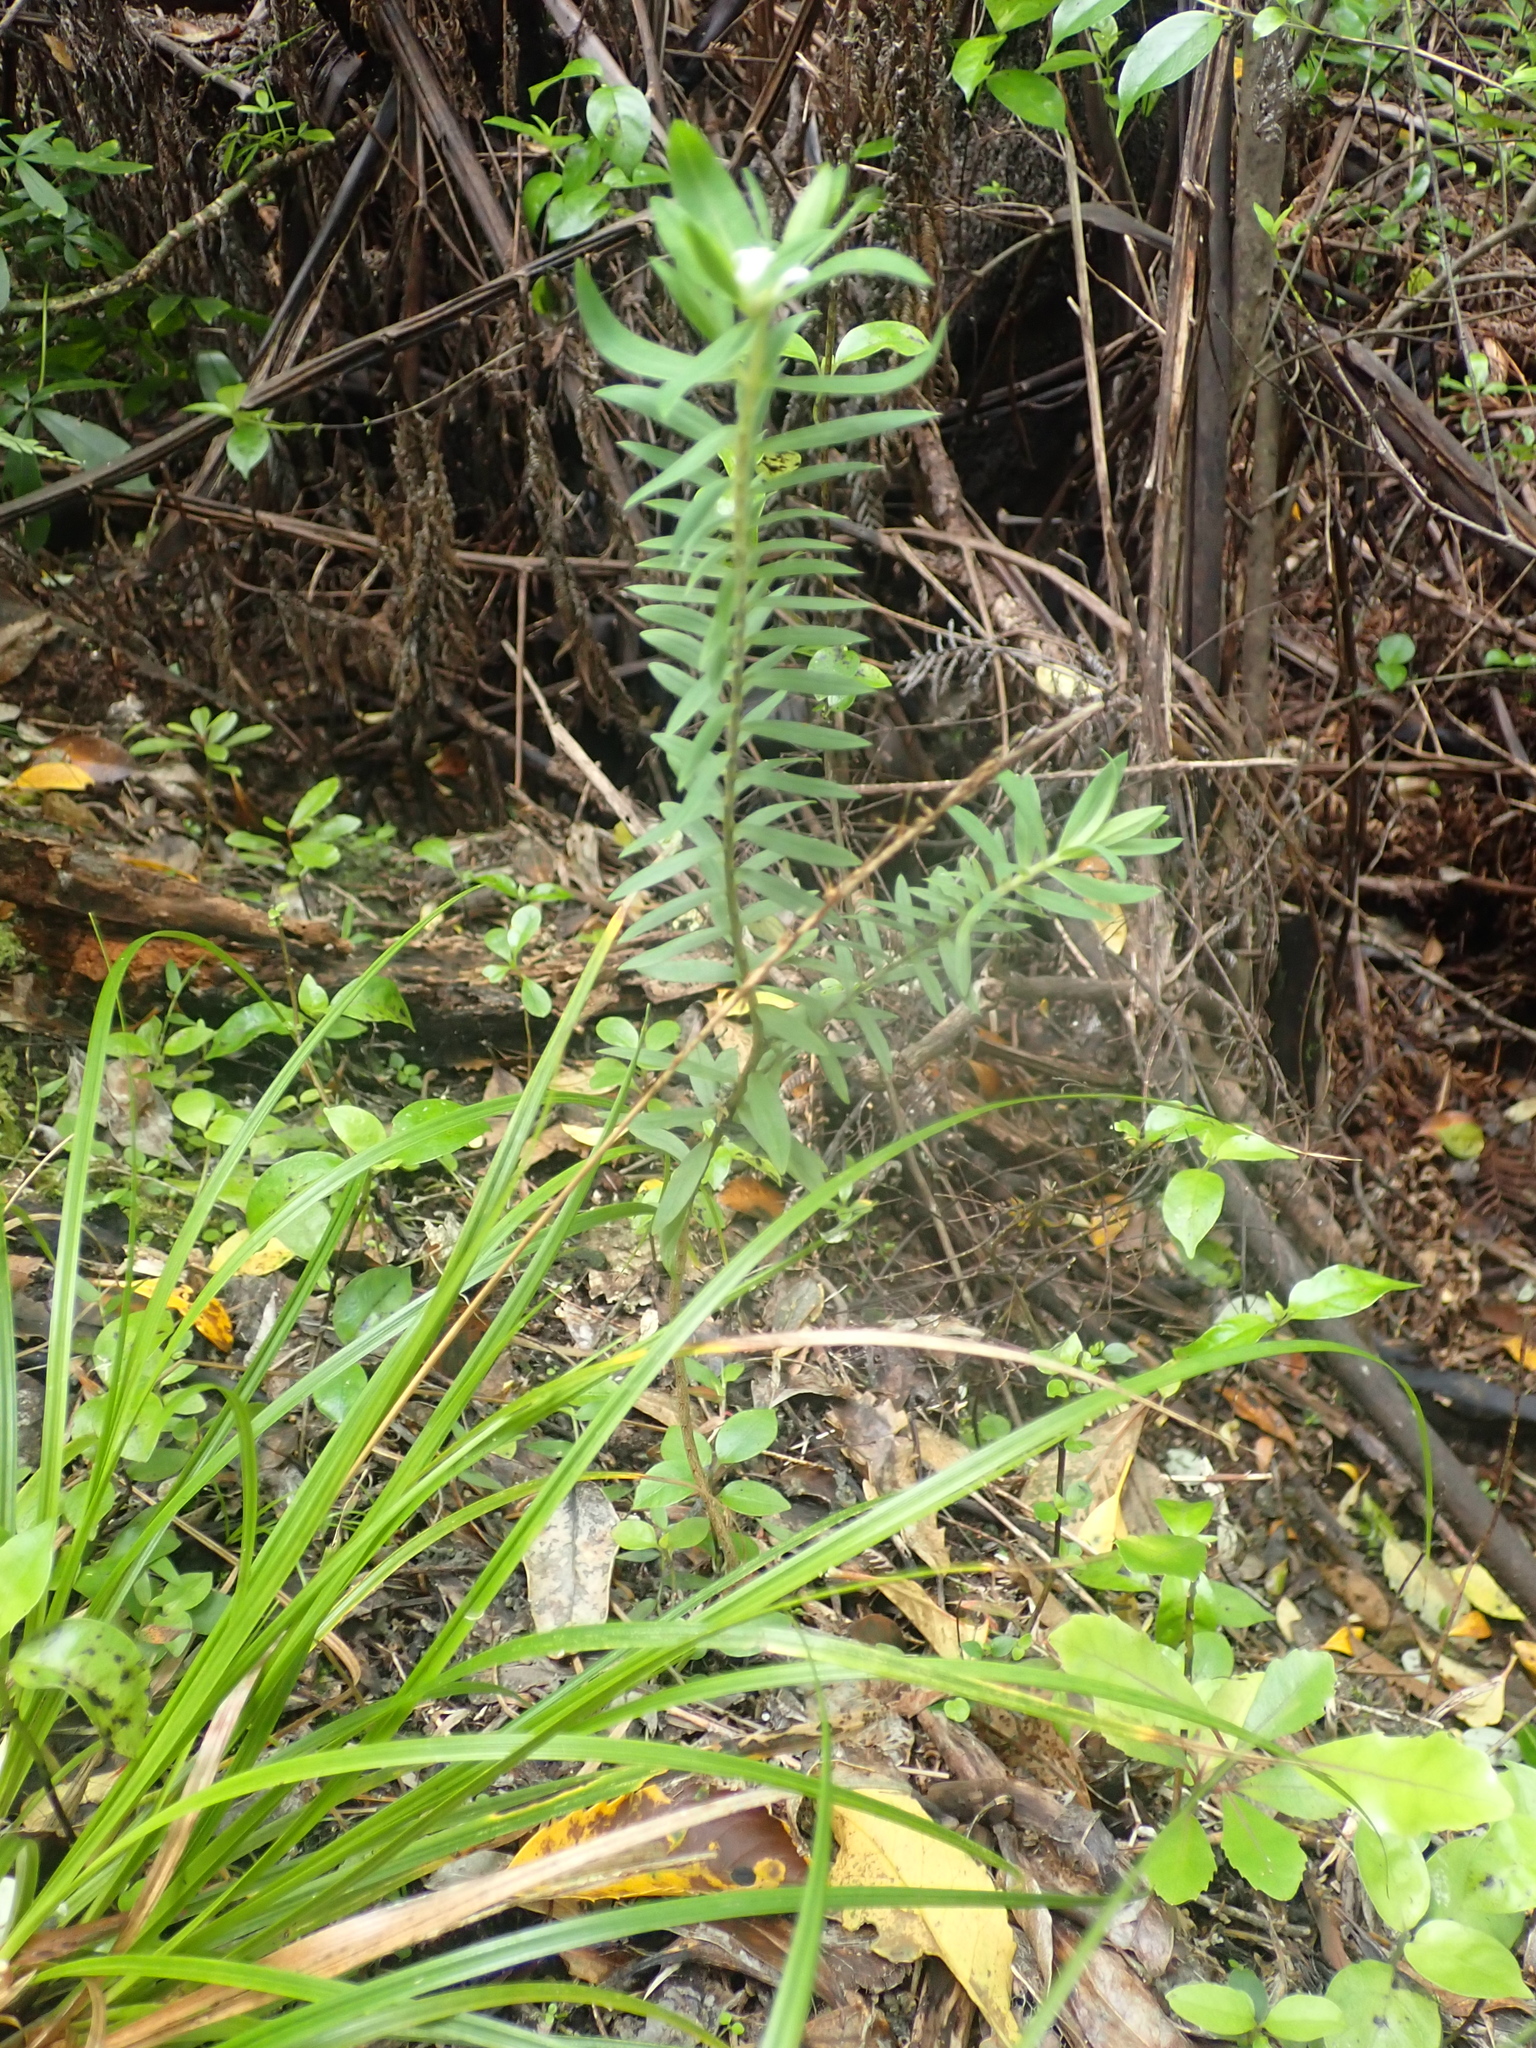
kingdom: Plantae
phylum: Tracheophyta
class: Magnoliopsida
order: Malvales
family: Thymelaeaceae
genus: Pimelea
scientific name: Pimelea tomentosa
